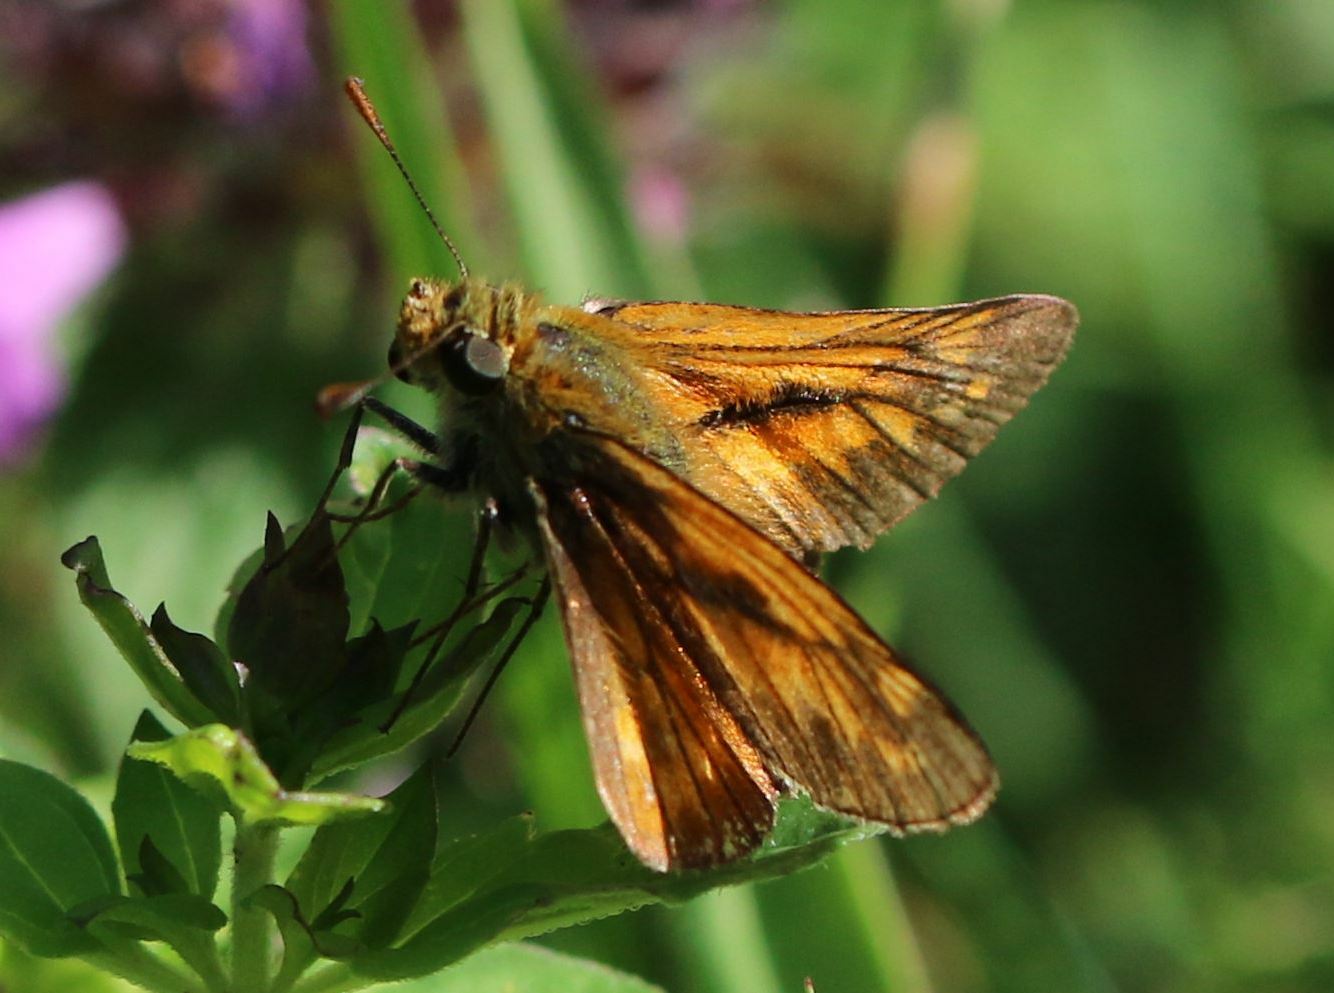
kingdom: Animalia
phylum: Arthropoda
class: Insecta
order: Lepidoptera
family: Hesperiidae
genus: Ochlodes
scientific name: Ochlodes venata
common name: Large skipper
